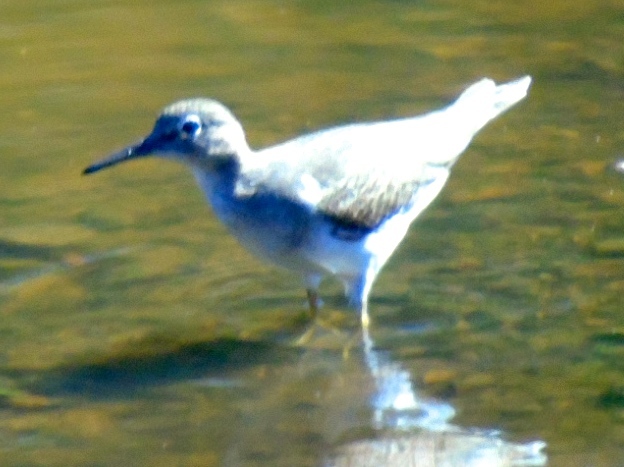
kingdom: Animalia
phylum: Chordata
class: Aves
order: Charadriiformes
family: Scolopacidae
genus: Actitis
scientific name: Actitis macularius
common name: Spotted sandpiper
